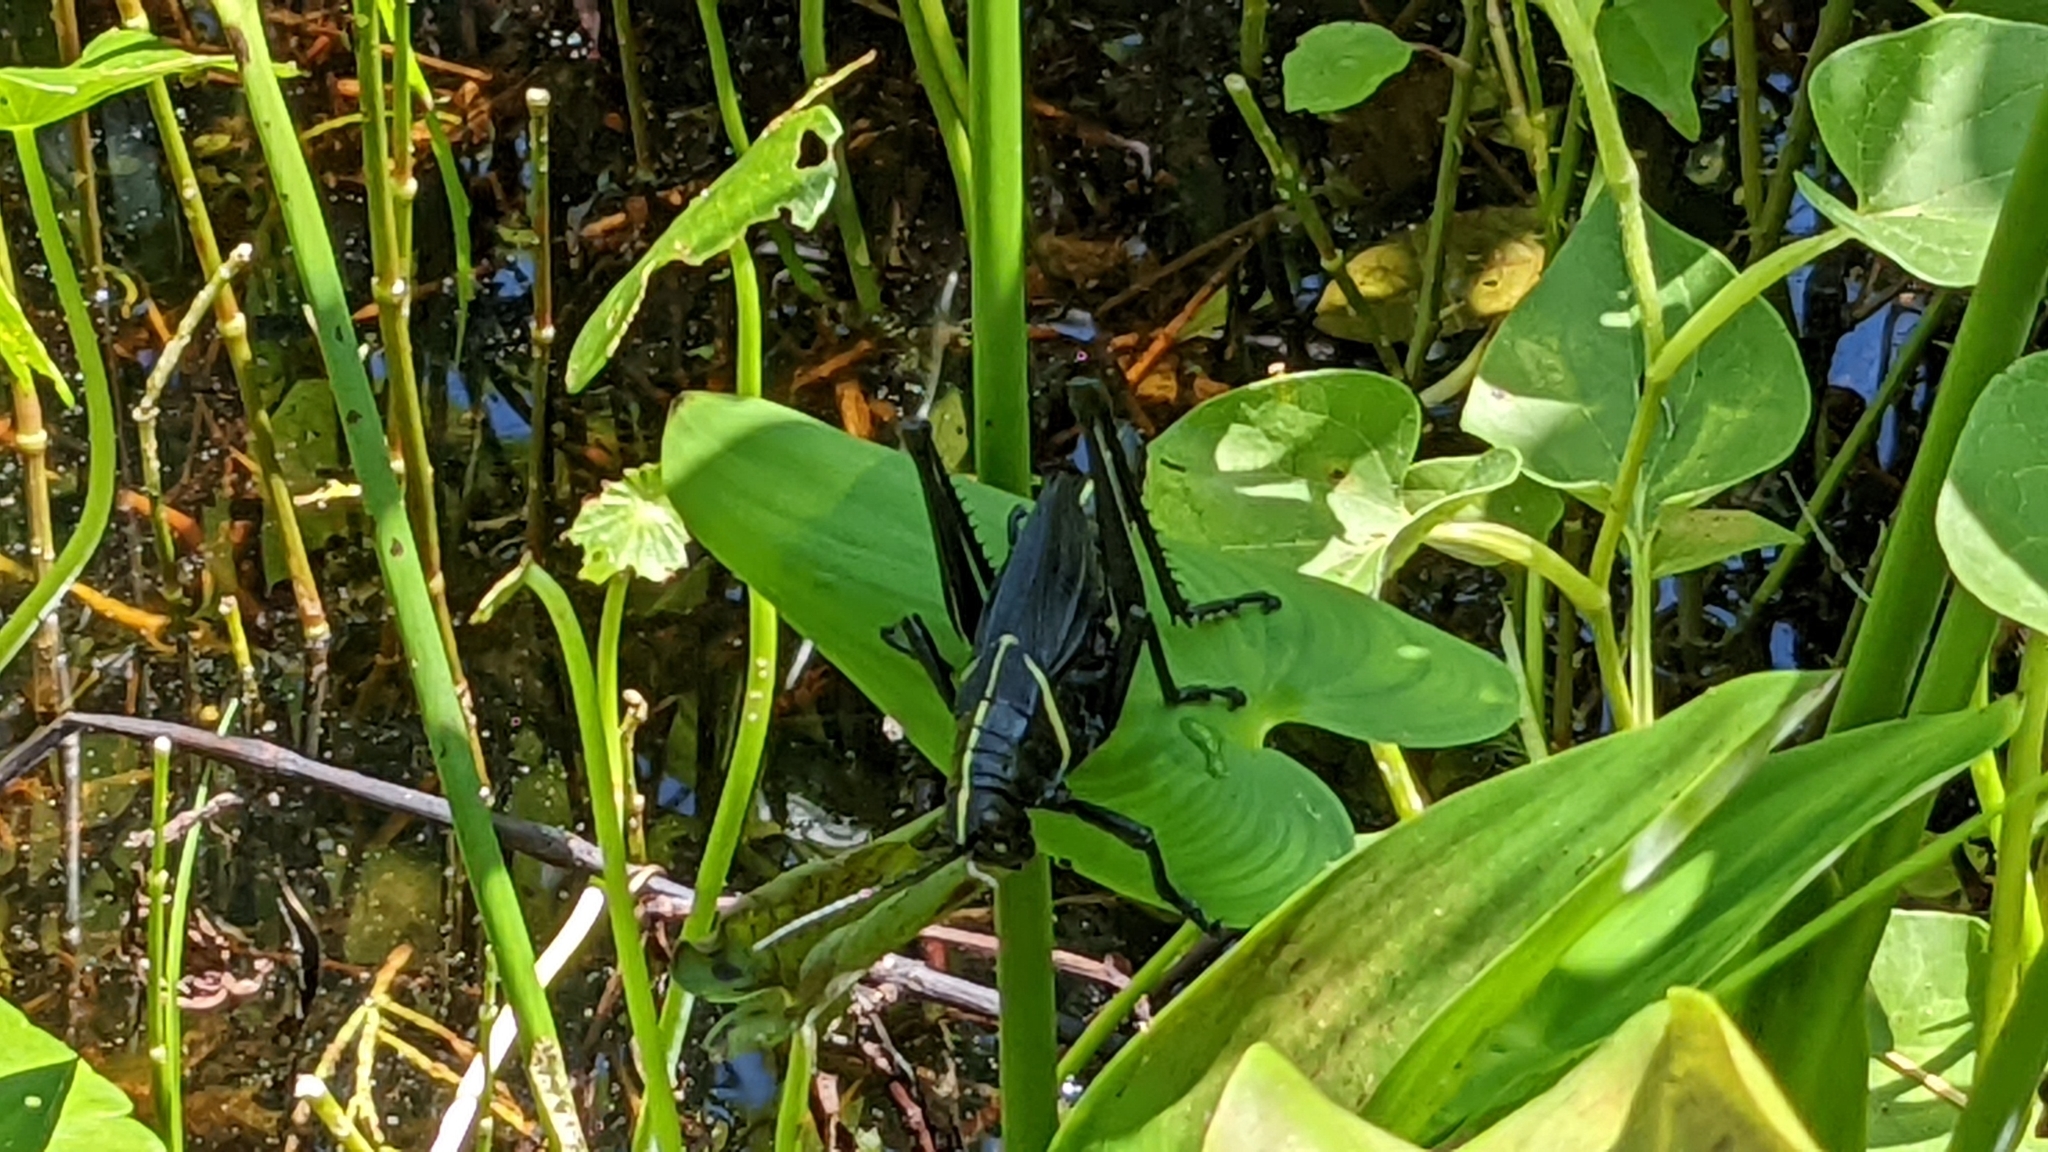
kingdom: Animalia
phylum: Arthropoda
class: Insecta
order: Orthoptera
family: Romaleidae
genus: Romalea
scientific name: Romalea microptera
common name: Eastern lubber grasshopper
